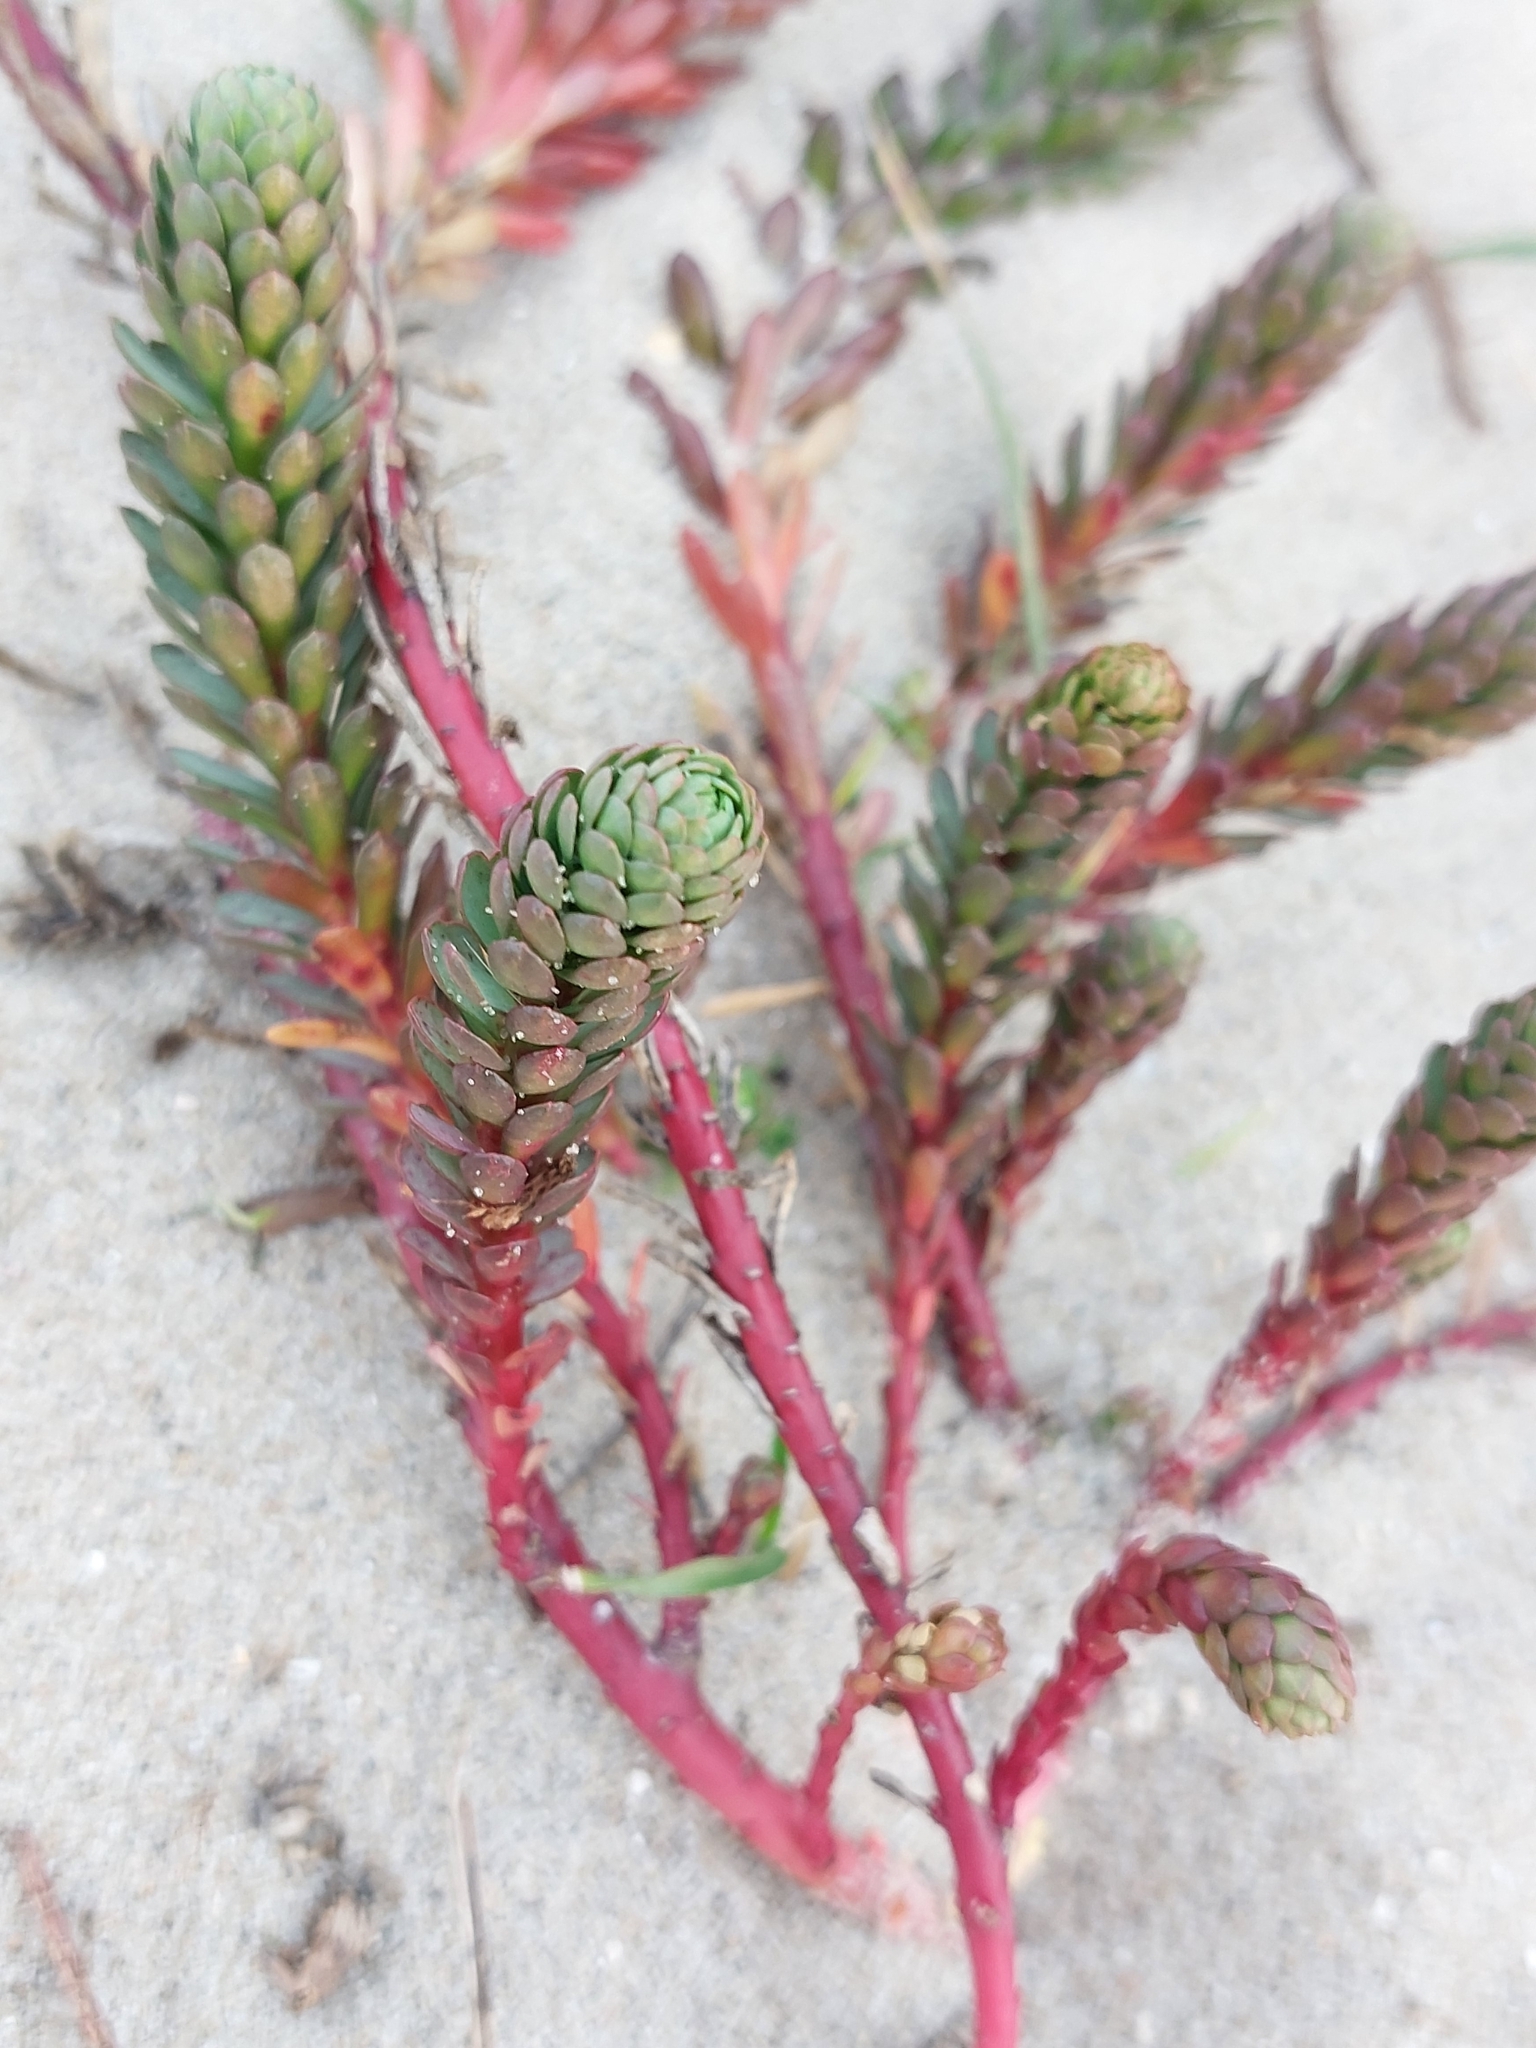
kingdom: Plantae
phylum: Tracheophyta
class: Magnoliopsida
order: Malpighiales
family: Euphorbiaceae
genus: Euphorbia
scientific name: Euphorbia paralias
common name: Sea spurge
